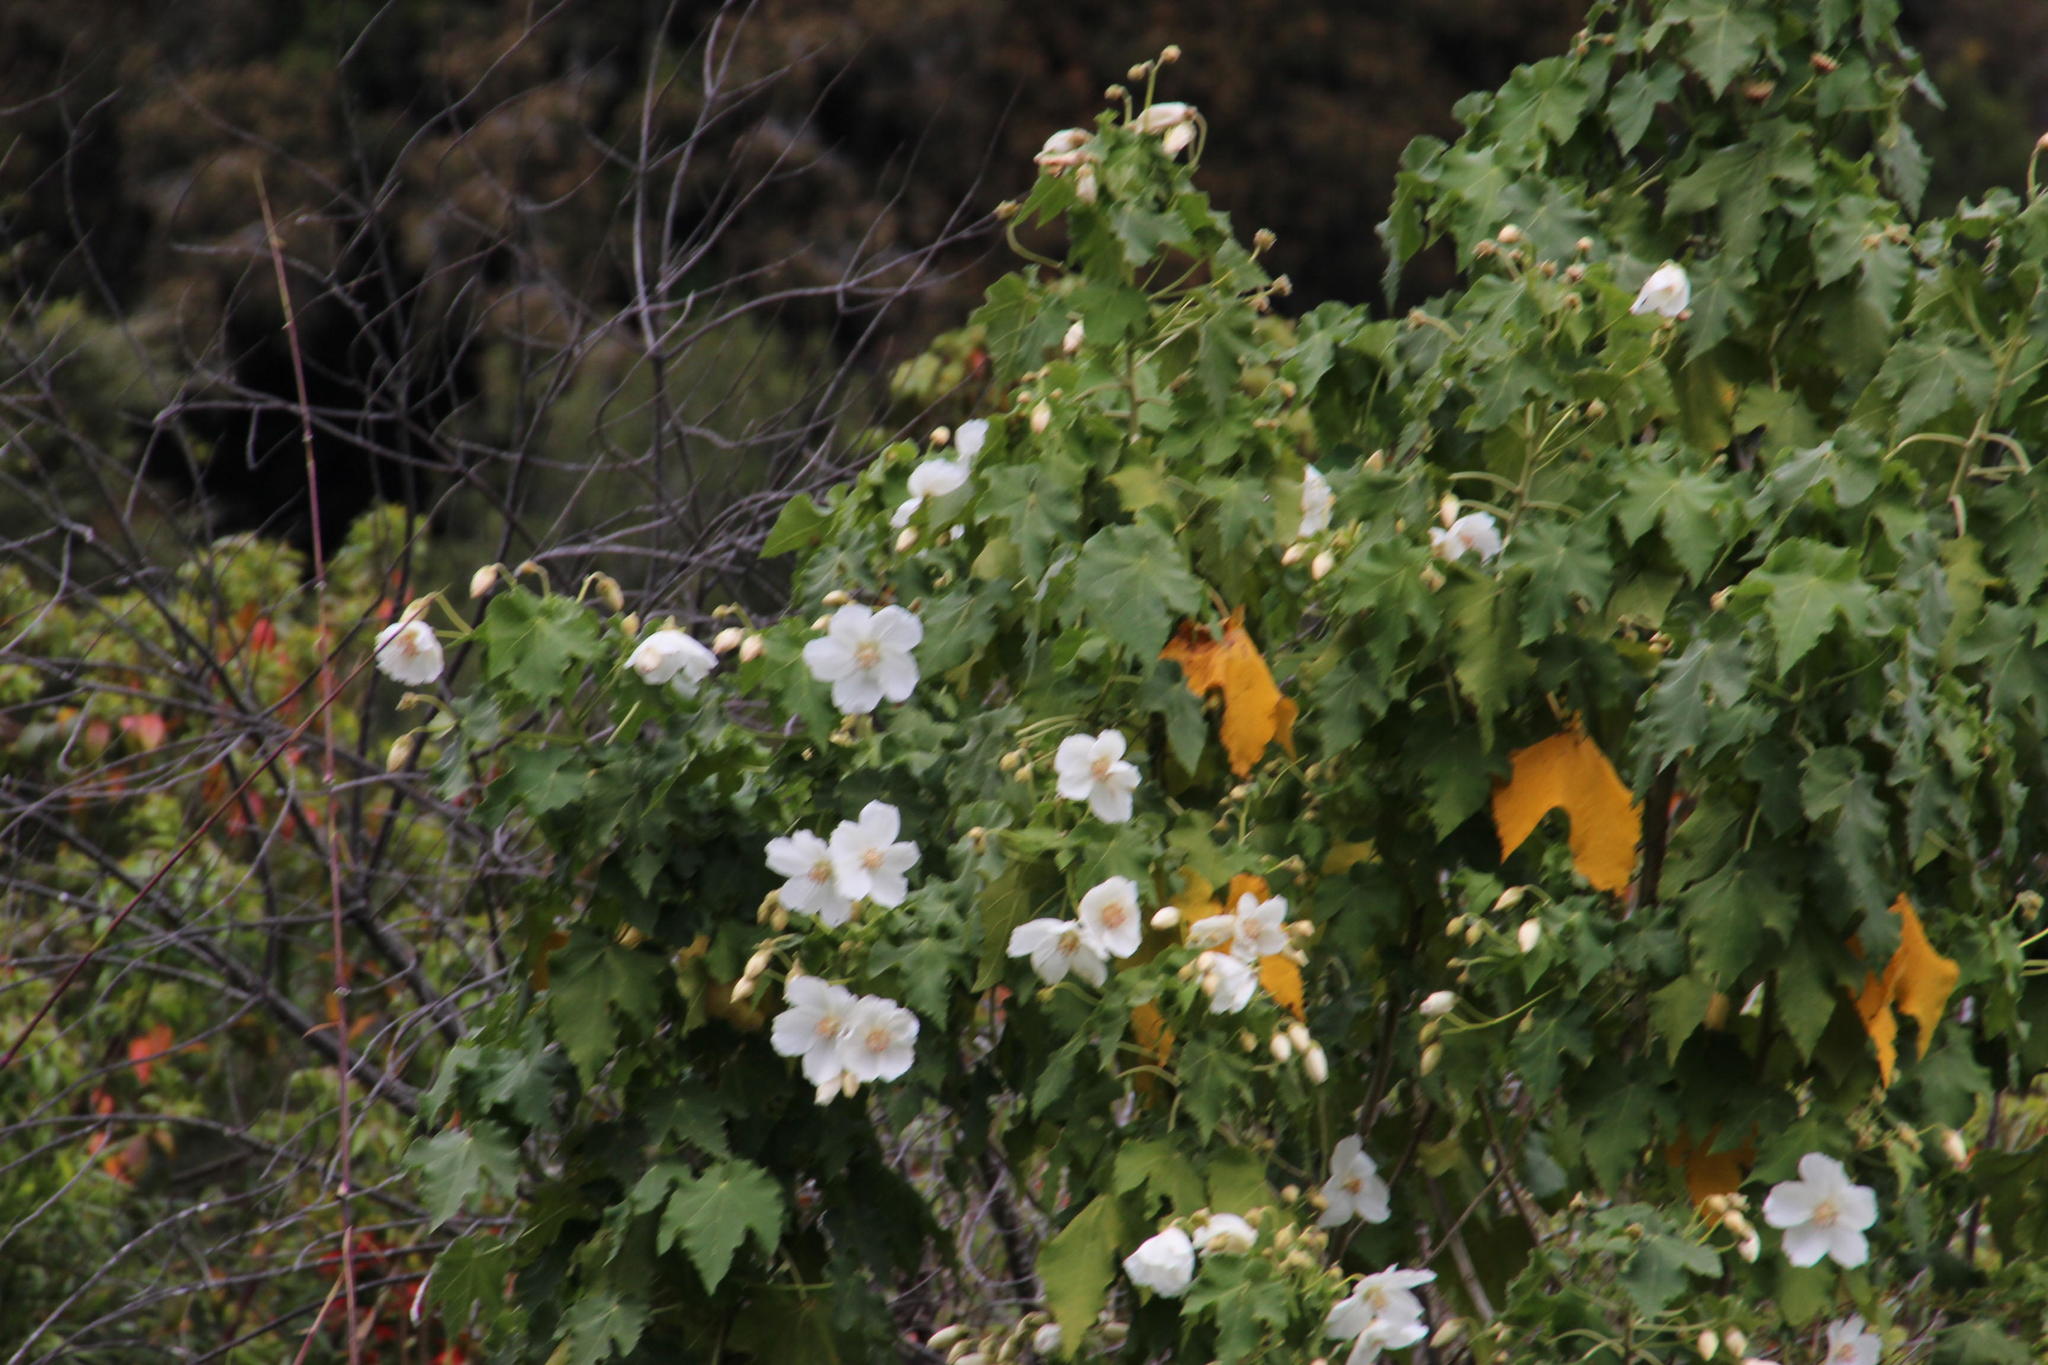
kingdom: Plantae
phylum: Tracheophyta
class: Magnoliopsida
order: Malvales
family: Malvaceae
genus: Corynabutilon
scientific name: Corynabutilon vitifolium
